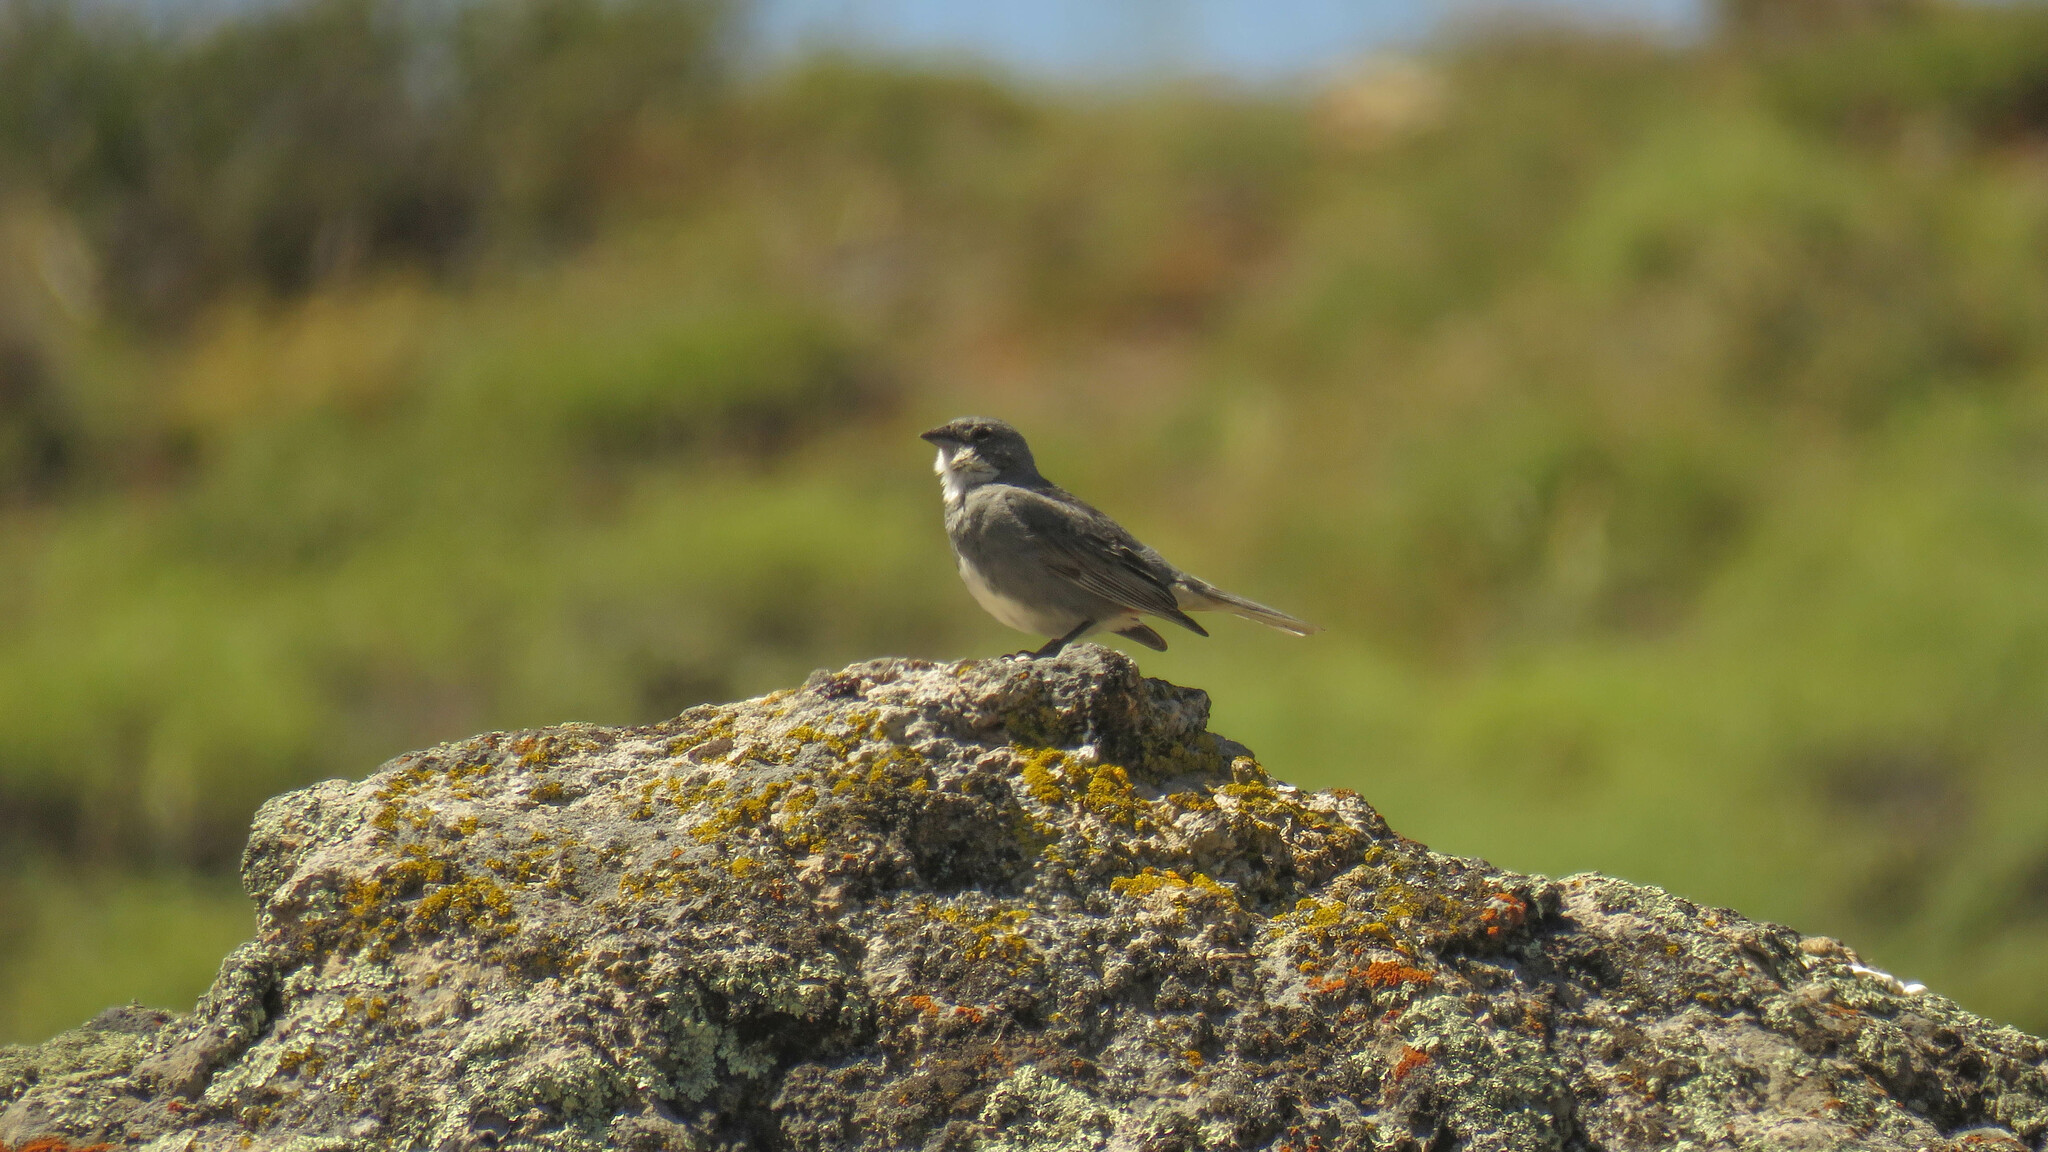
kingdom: Animalia
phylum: Chordata
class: Aves
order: Passeriformes
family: Thraupidae
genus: Diuca
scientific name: Diuca diuca
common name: Common diuca finch
